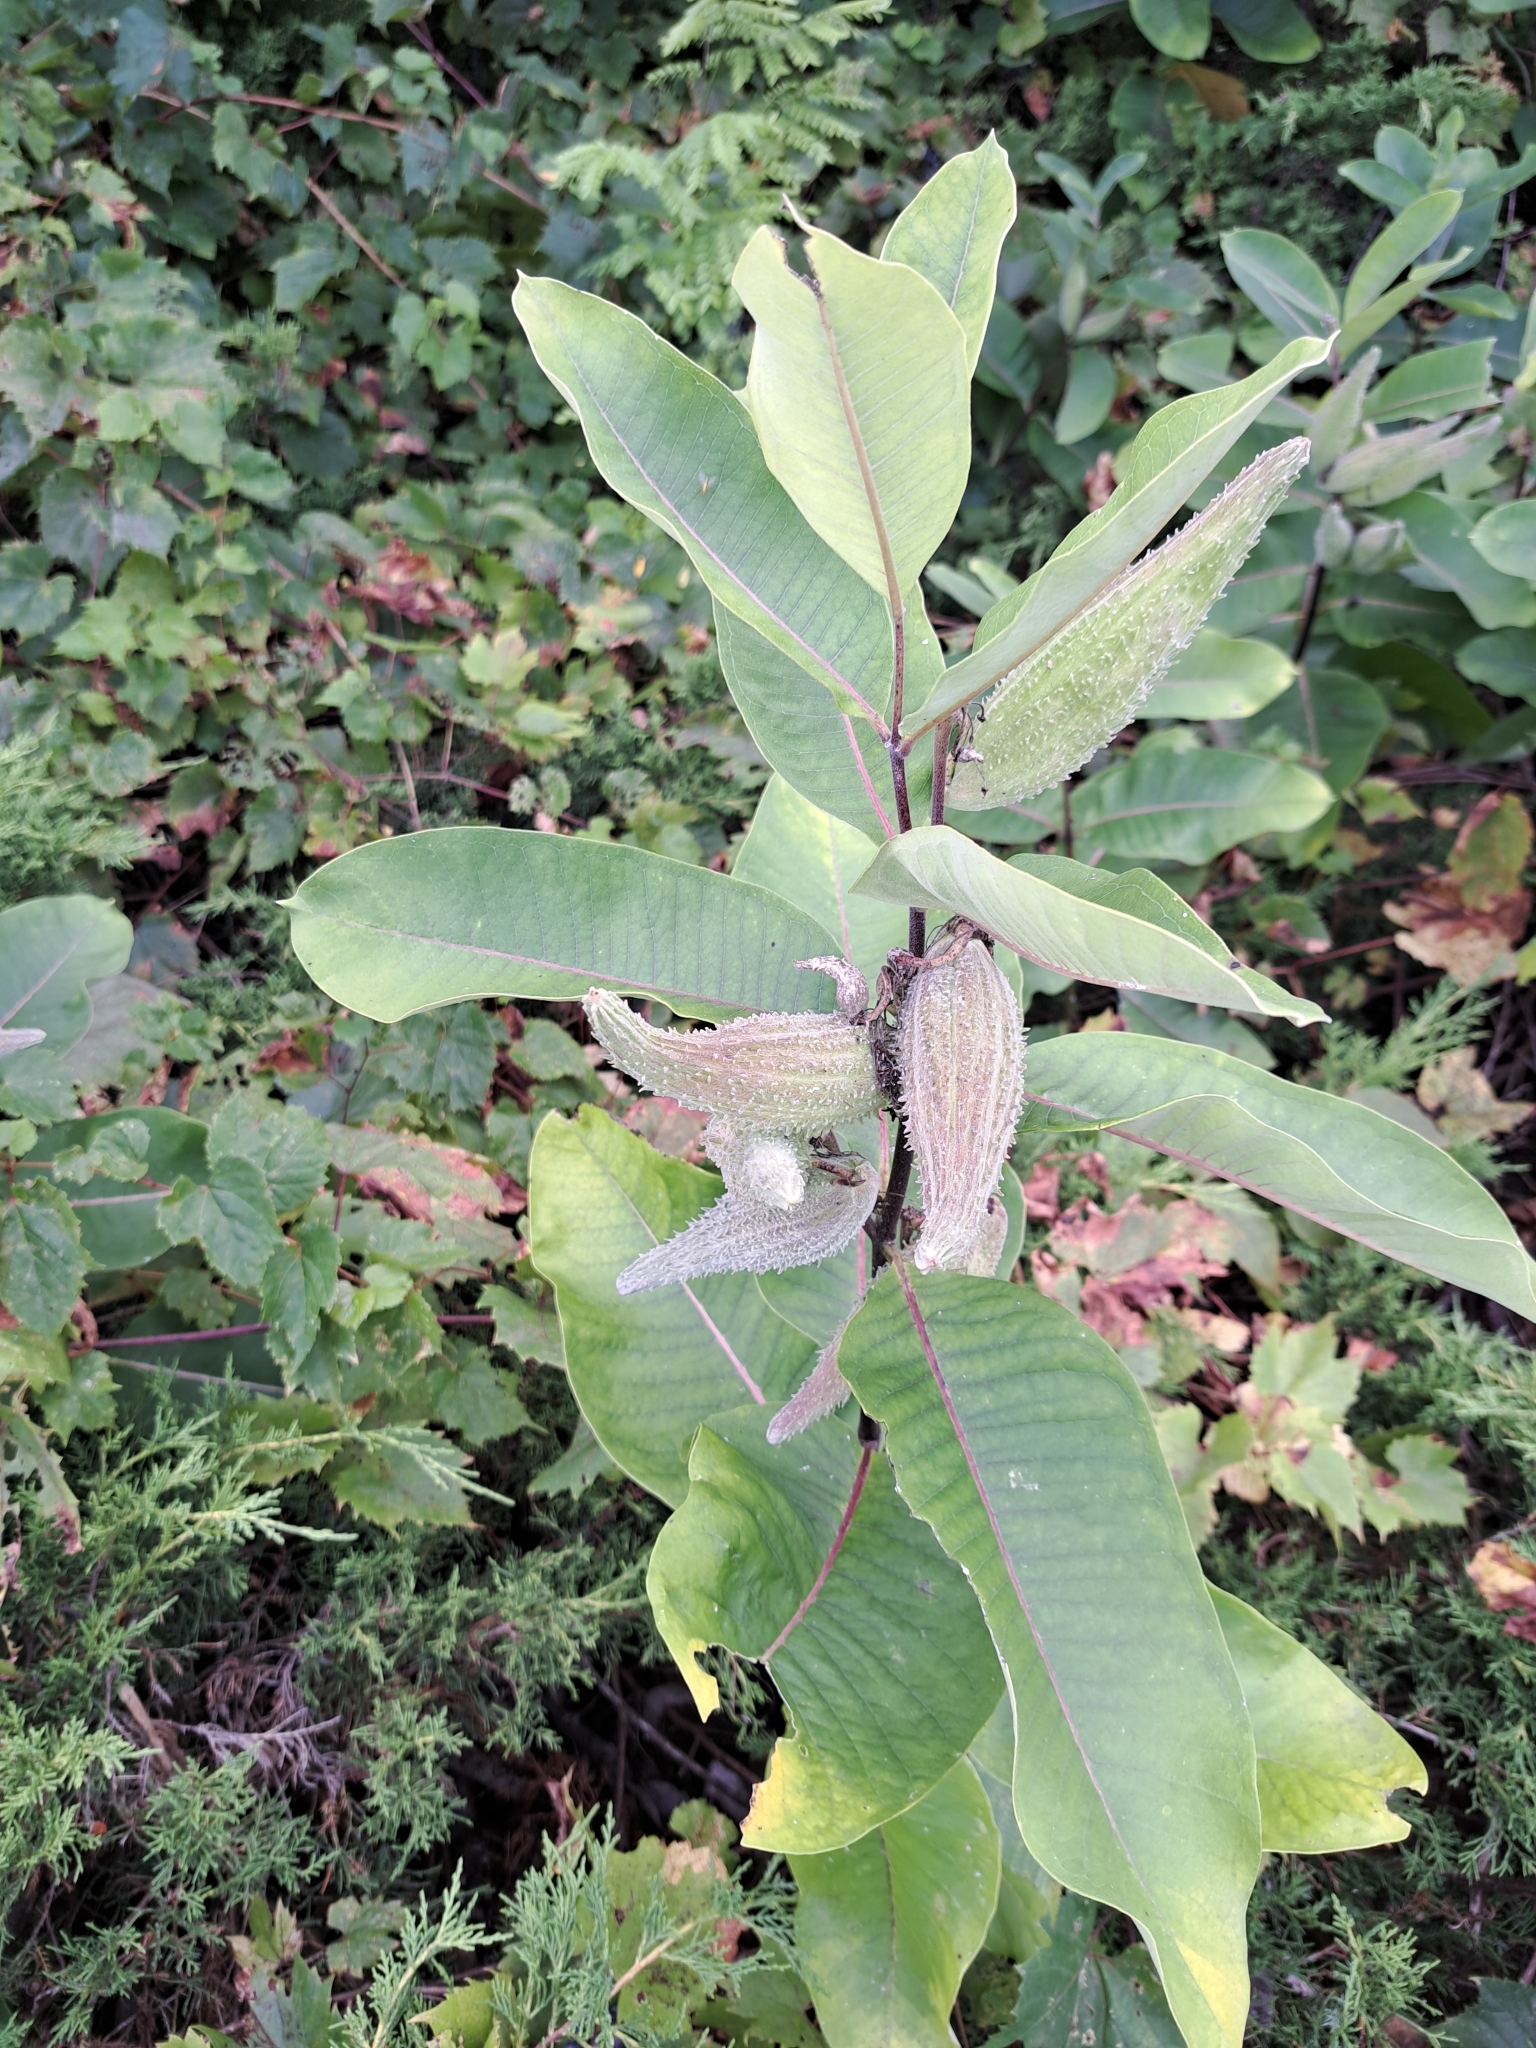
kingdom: Plantae
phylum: Tracheophyta
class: Magnoliopsida
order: Gentianales
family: Apocynaceae
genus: Asclepias
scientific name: Asclepias syriaca
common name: Common milkweed
